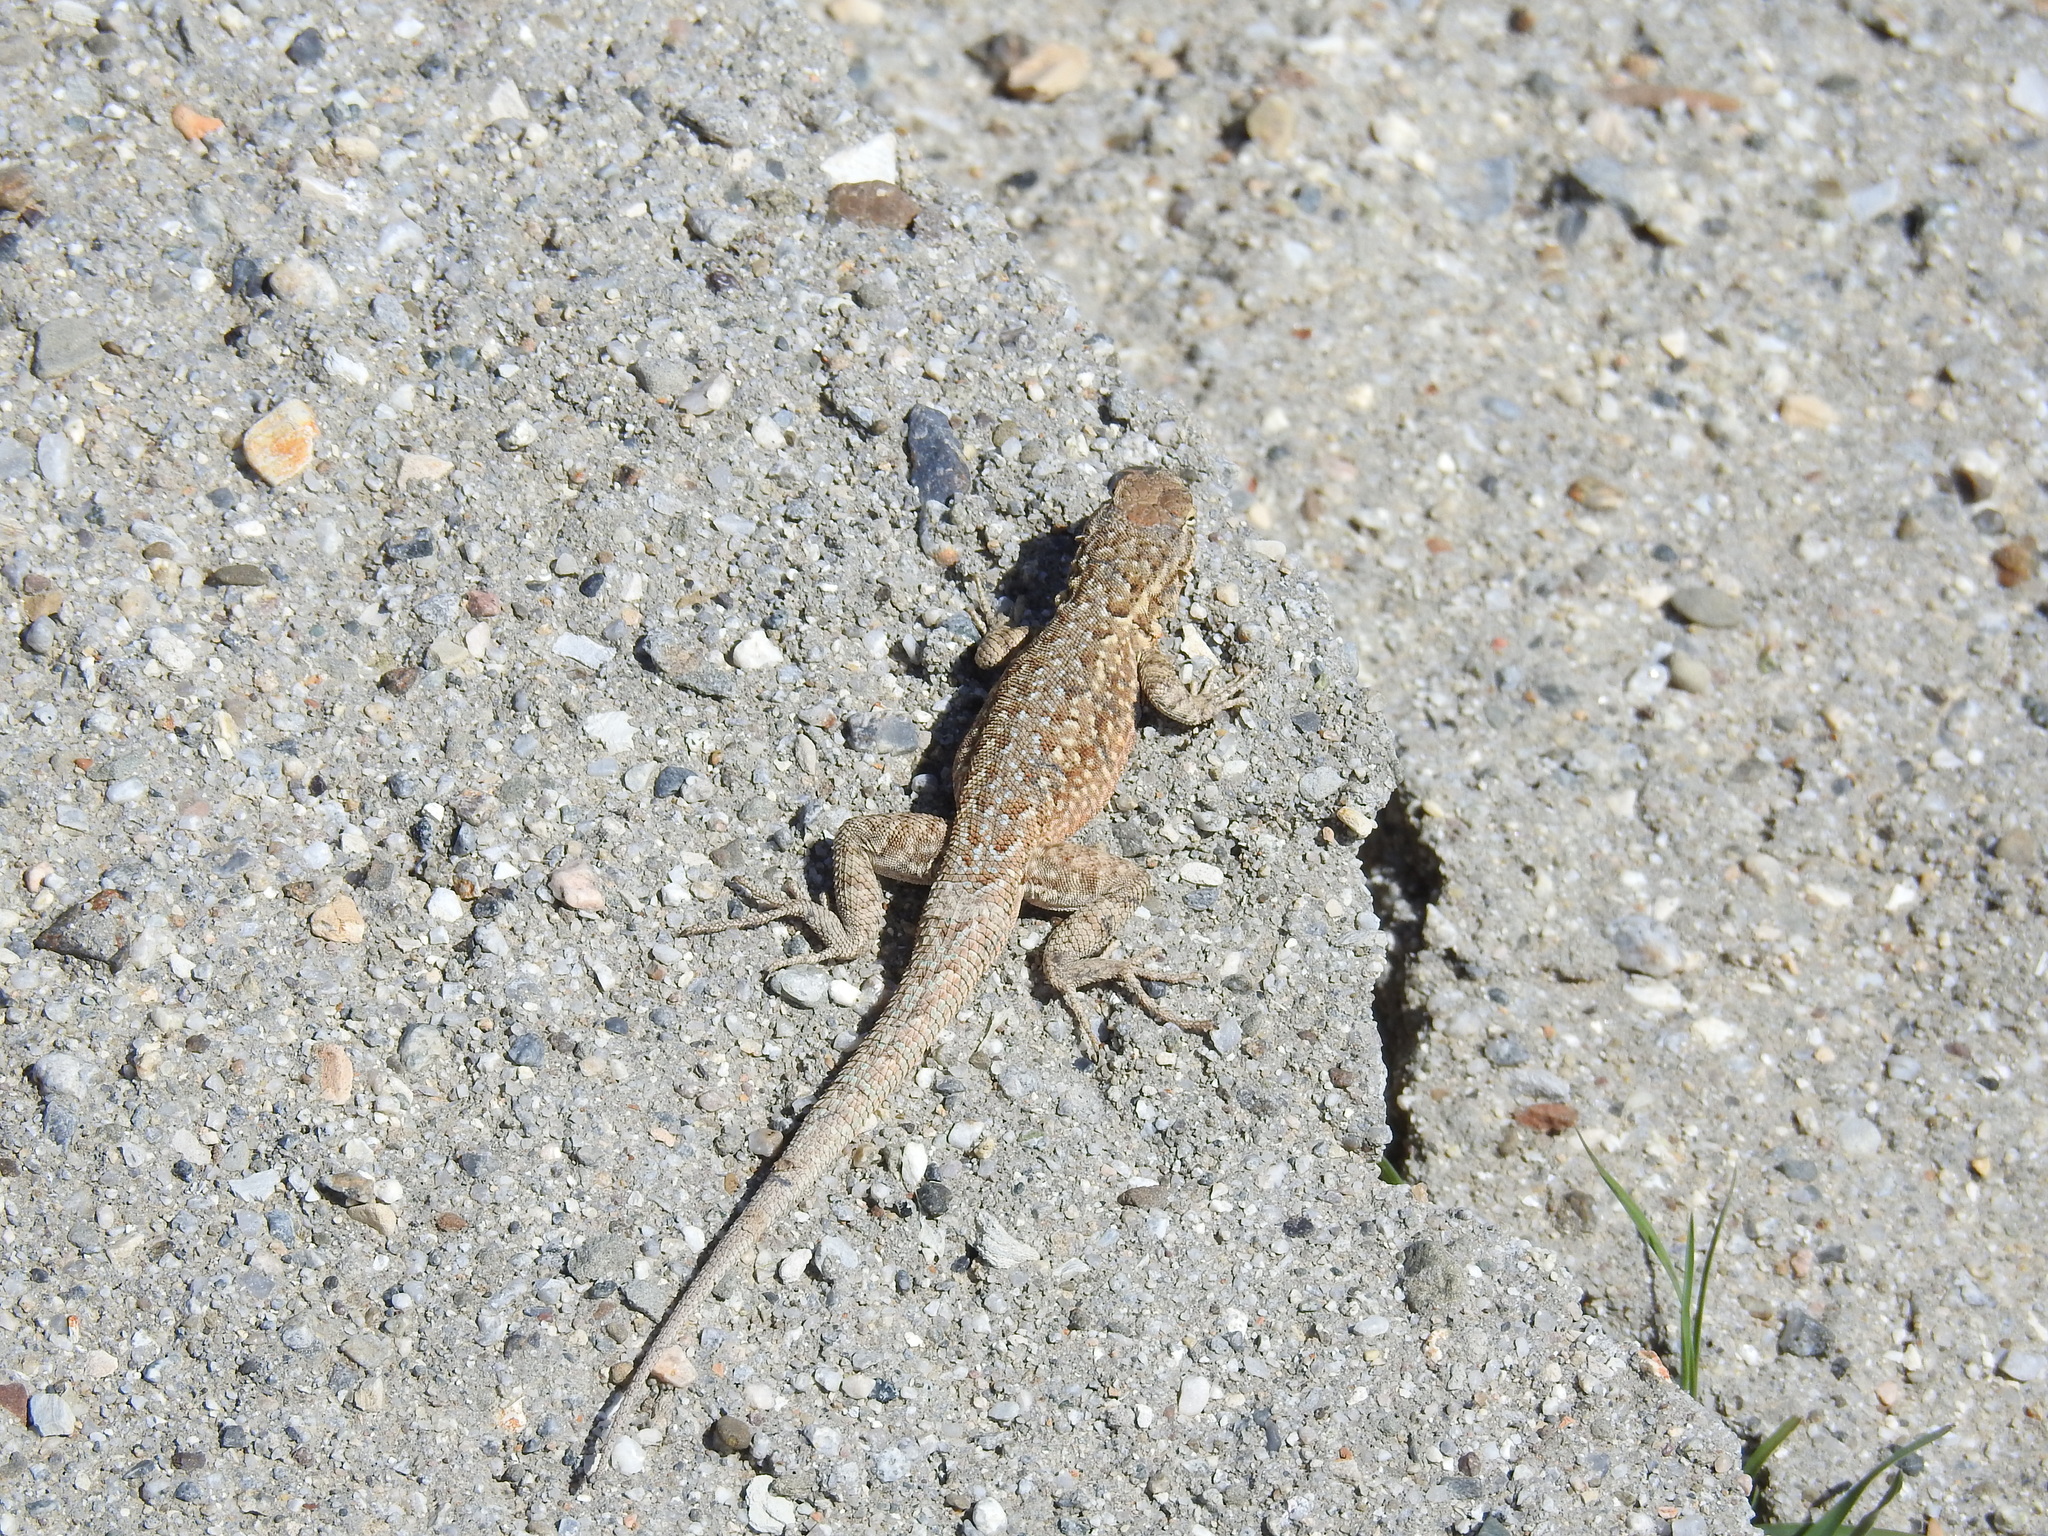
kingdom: Animalia
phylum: Chordata
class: Squamata
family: Phrynosomatidae
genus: Uta
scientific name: Uta stansburiana
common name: Side-blotched lizard
